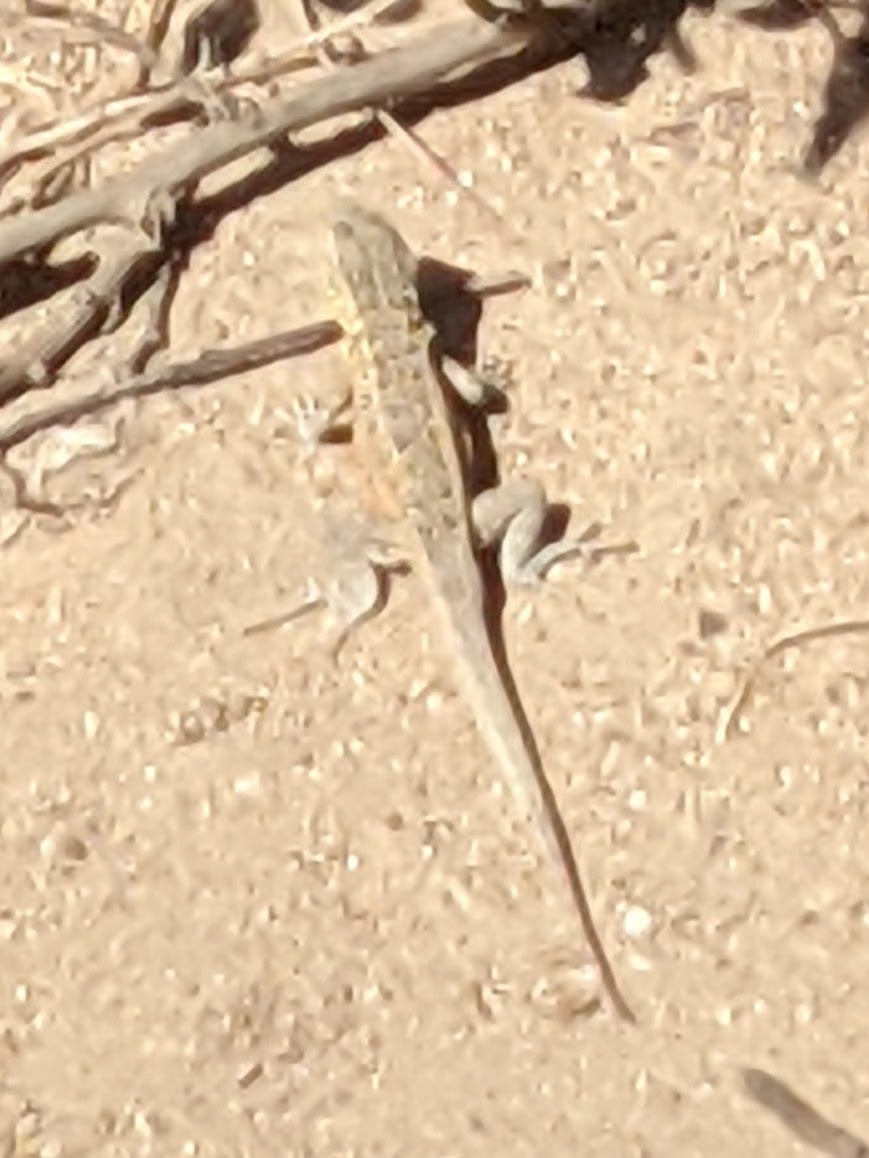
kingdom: Animalia
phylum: Chordata
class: Squamata
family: Phrynosomatidae
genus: Uta
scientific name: Uta stansburiana
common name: Side-blotched lizard
